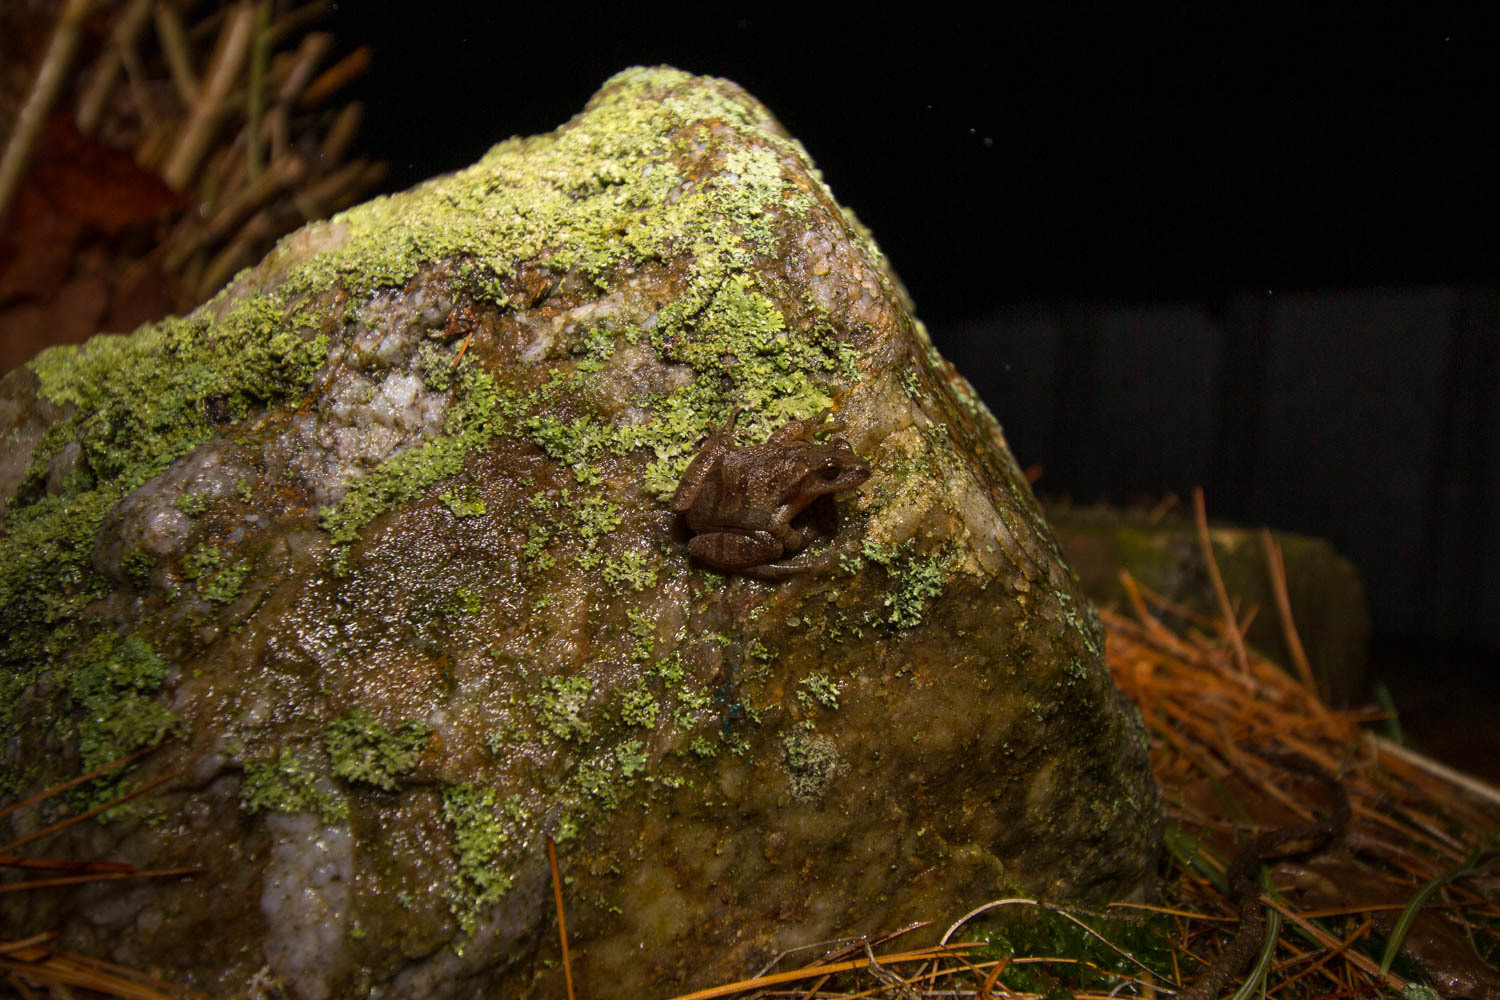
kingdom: Animalia
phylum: Chordata
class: Amphibia
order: Anura
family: Hylidae
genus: Pseudacris
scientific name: Pseudacris crucifer
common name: Spring peeper
